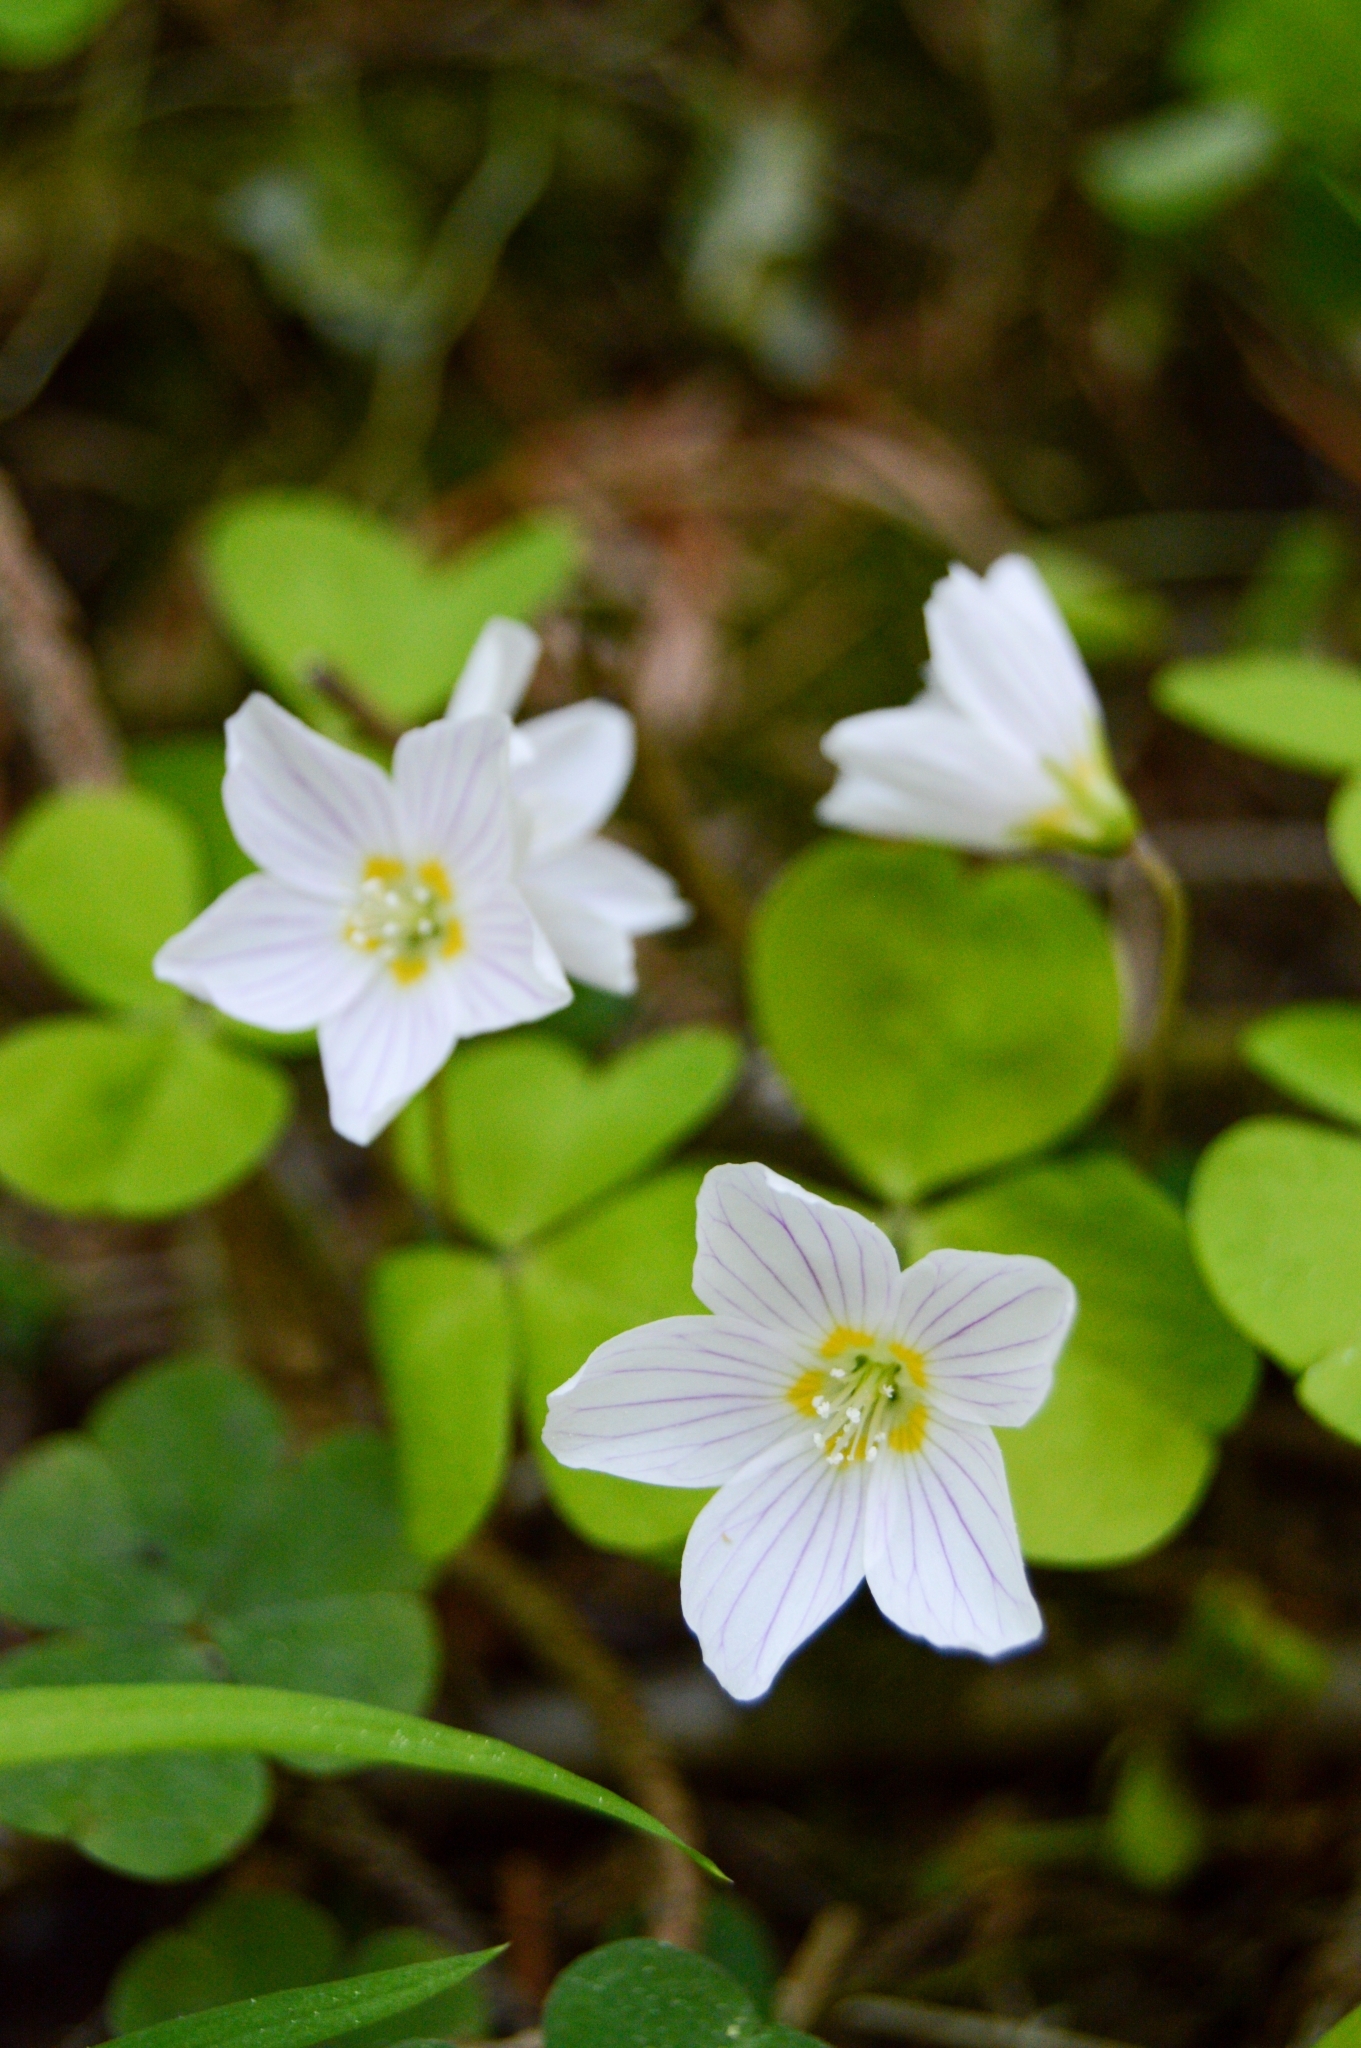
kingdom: Plantae
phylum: Tracheophyta
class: Magnoliopsida
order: Oxalidales
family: Oxalidaceae
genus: Oxalis
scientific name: Oxalis acetosella
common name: Wood-sorrel
